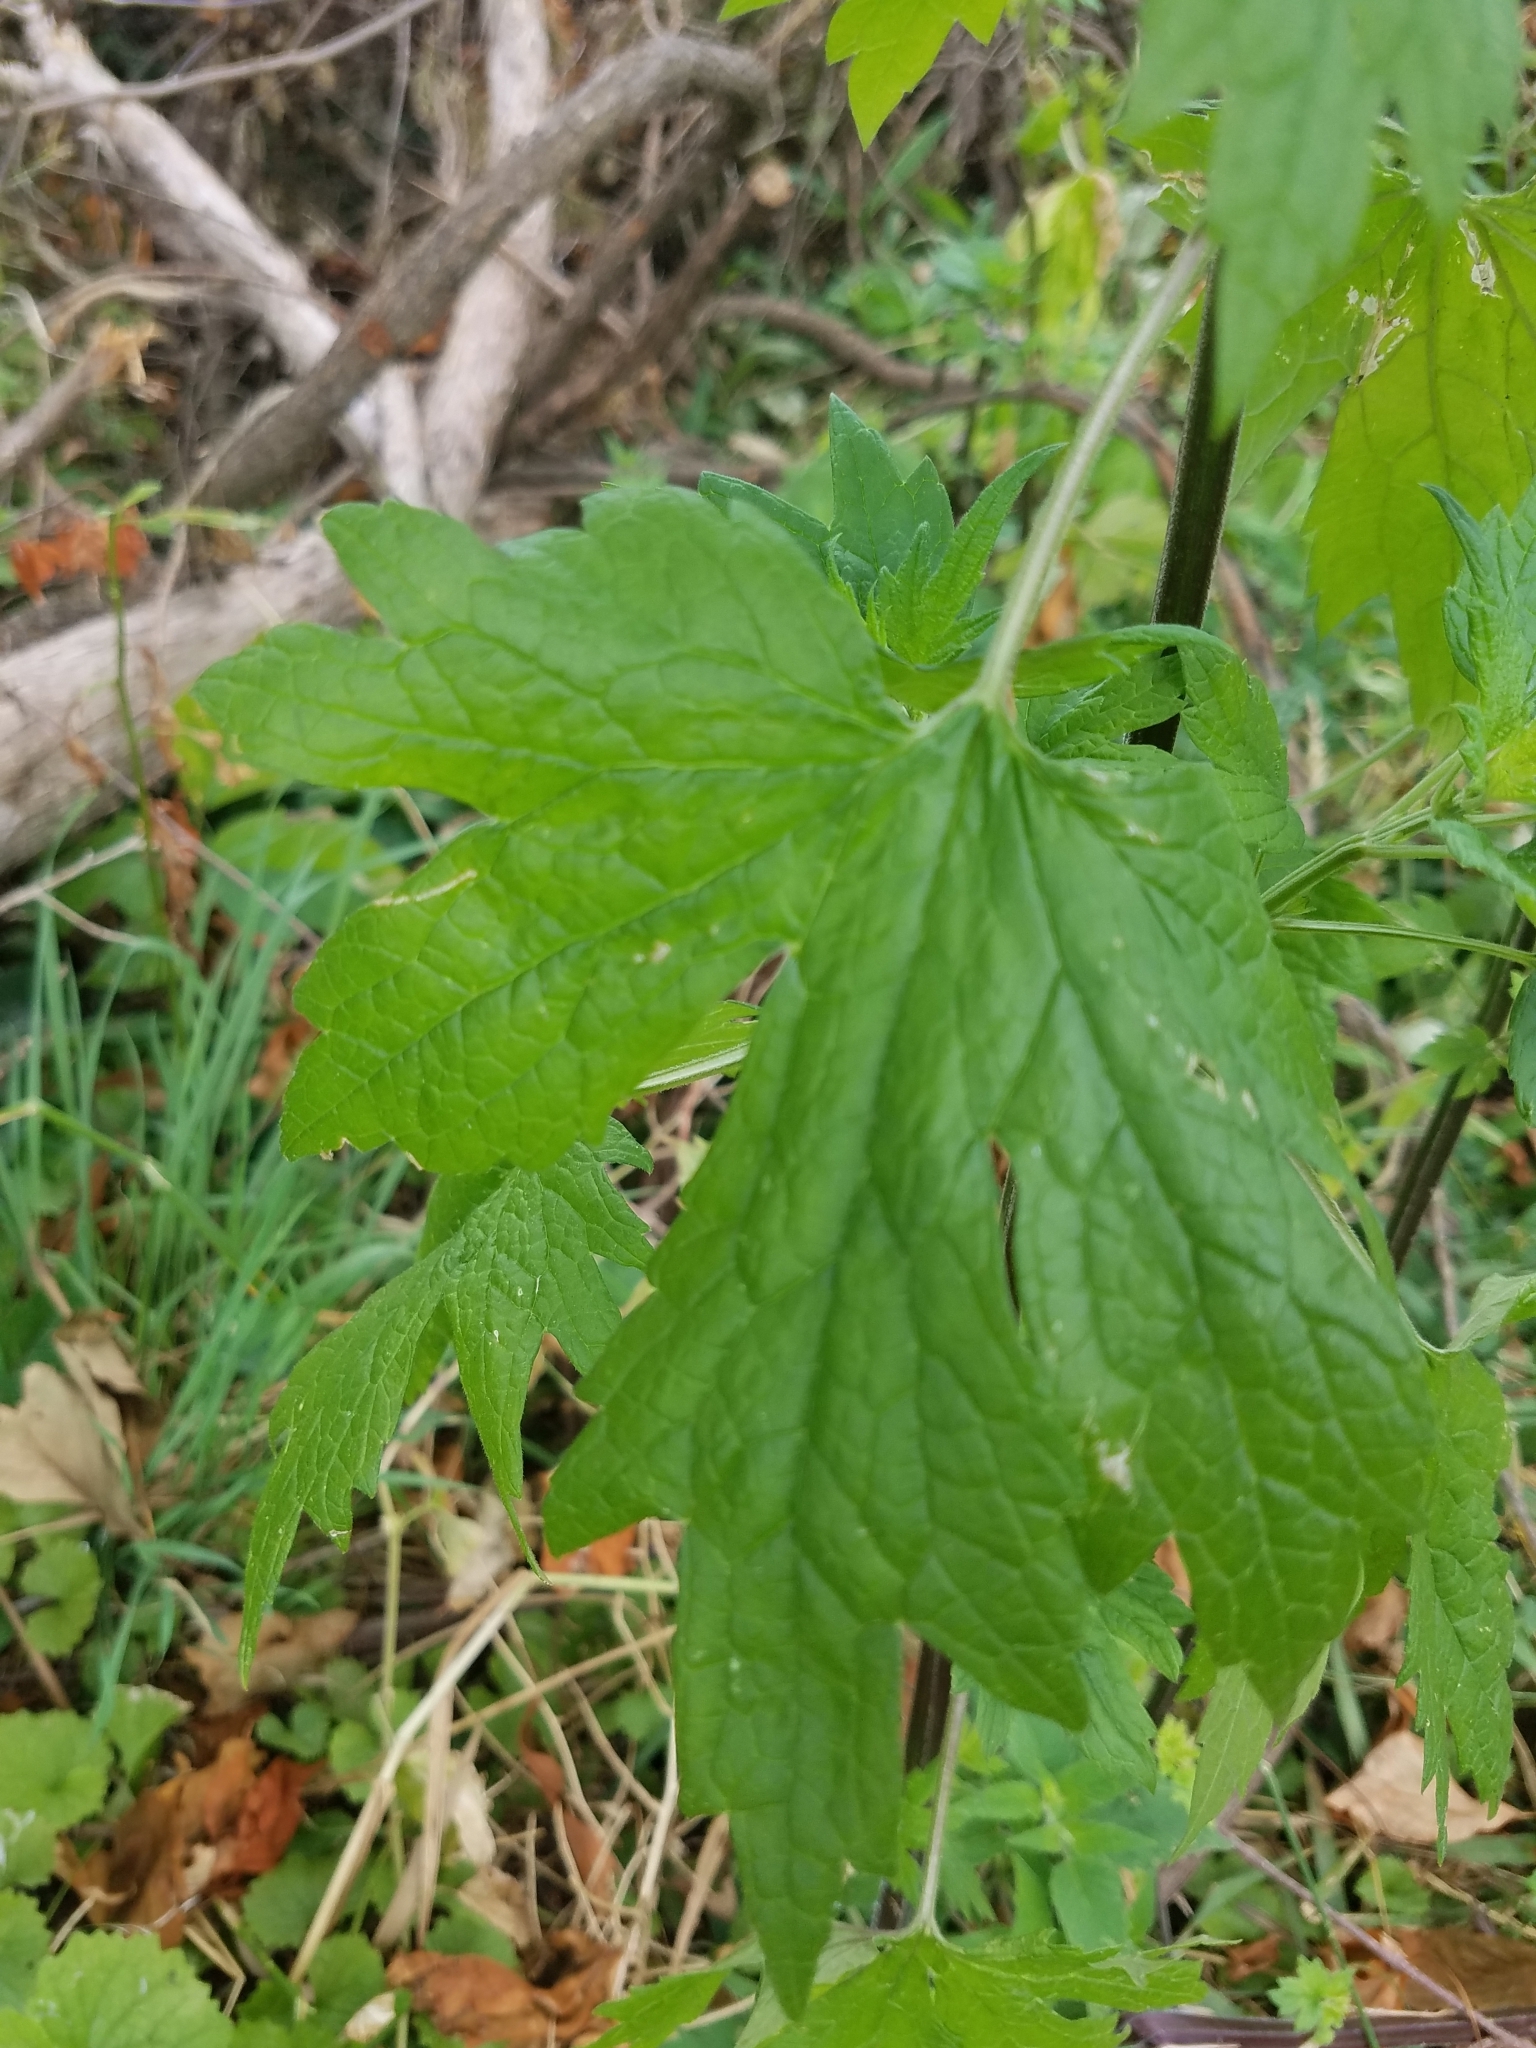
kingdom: Plantae
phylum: Tracheophyta
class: Magnoliopsida
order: Lamiales
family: Lamiaceae
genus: Leonurus
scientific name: Leonurus cardiaca
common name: Motherwort
